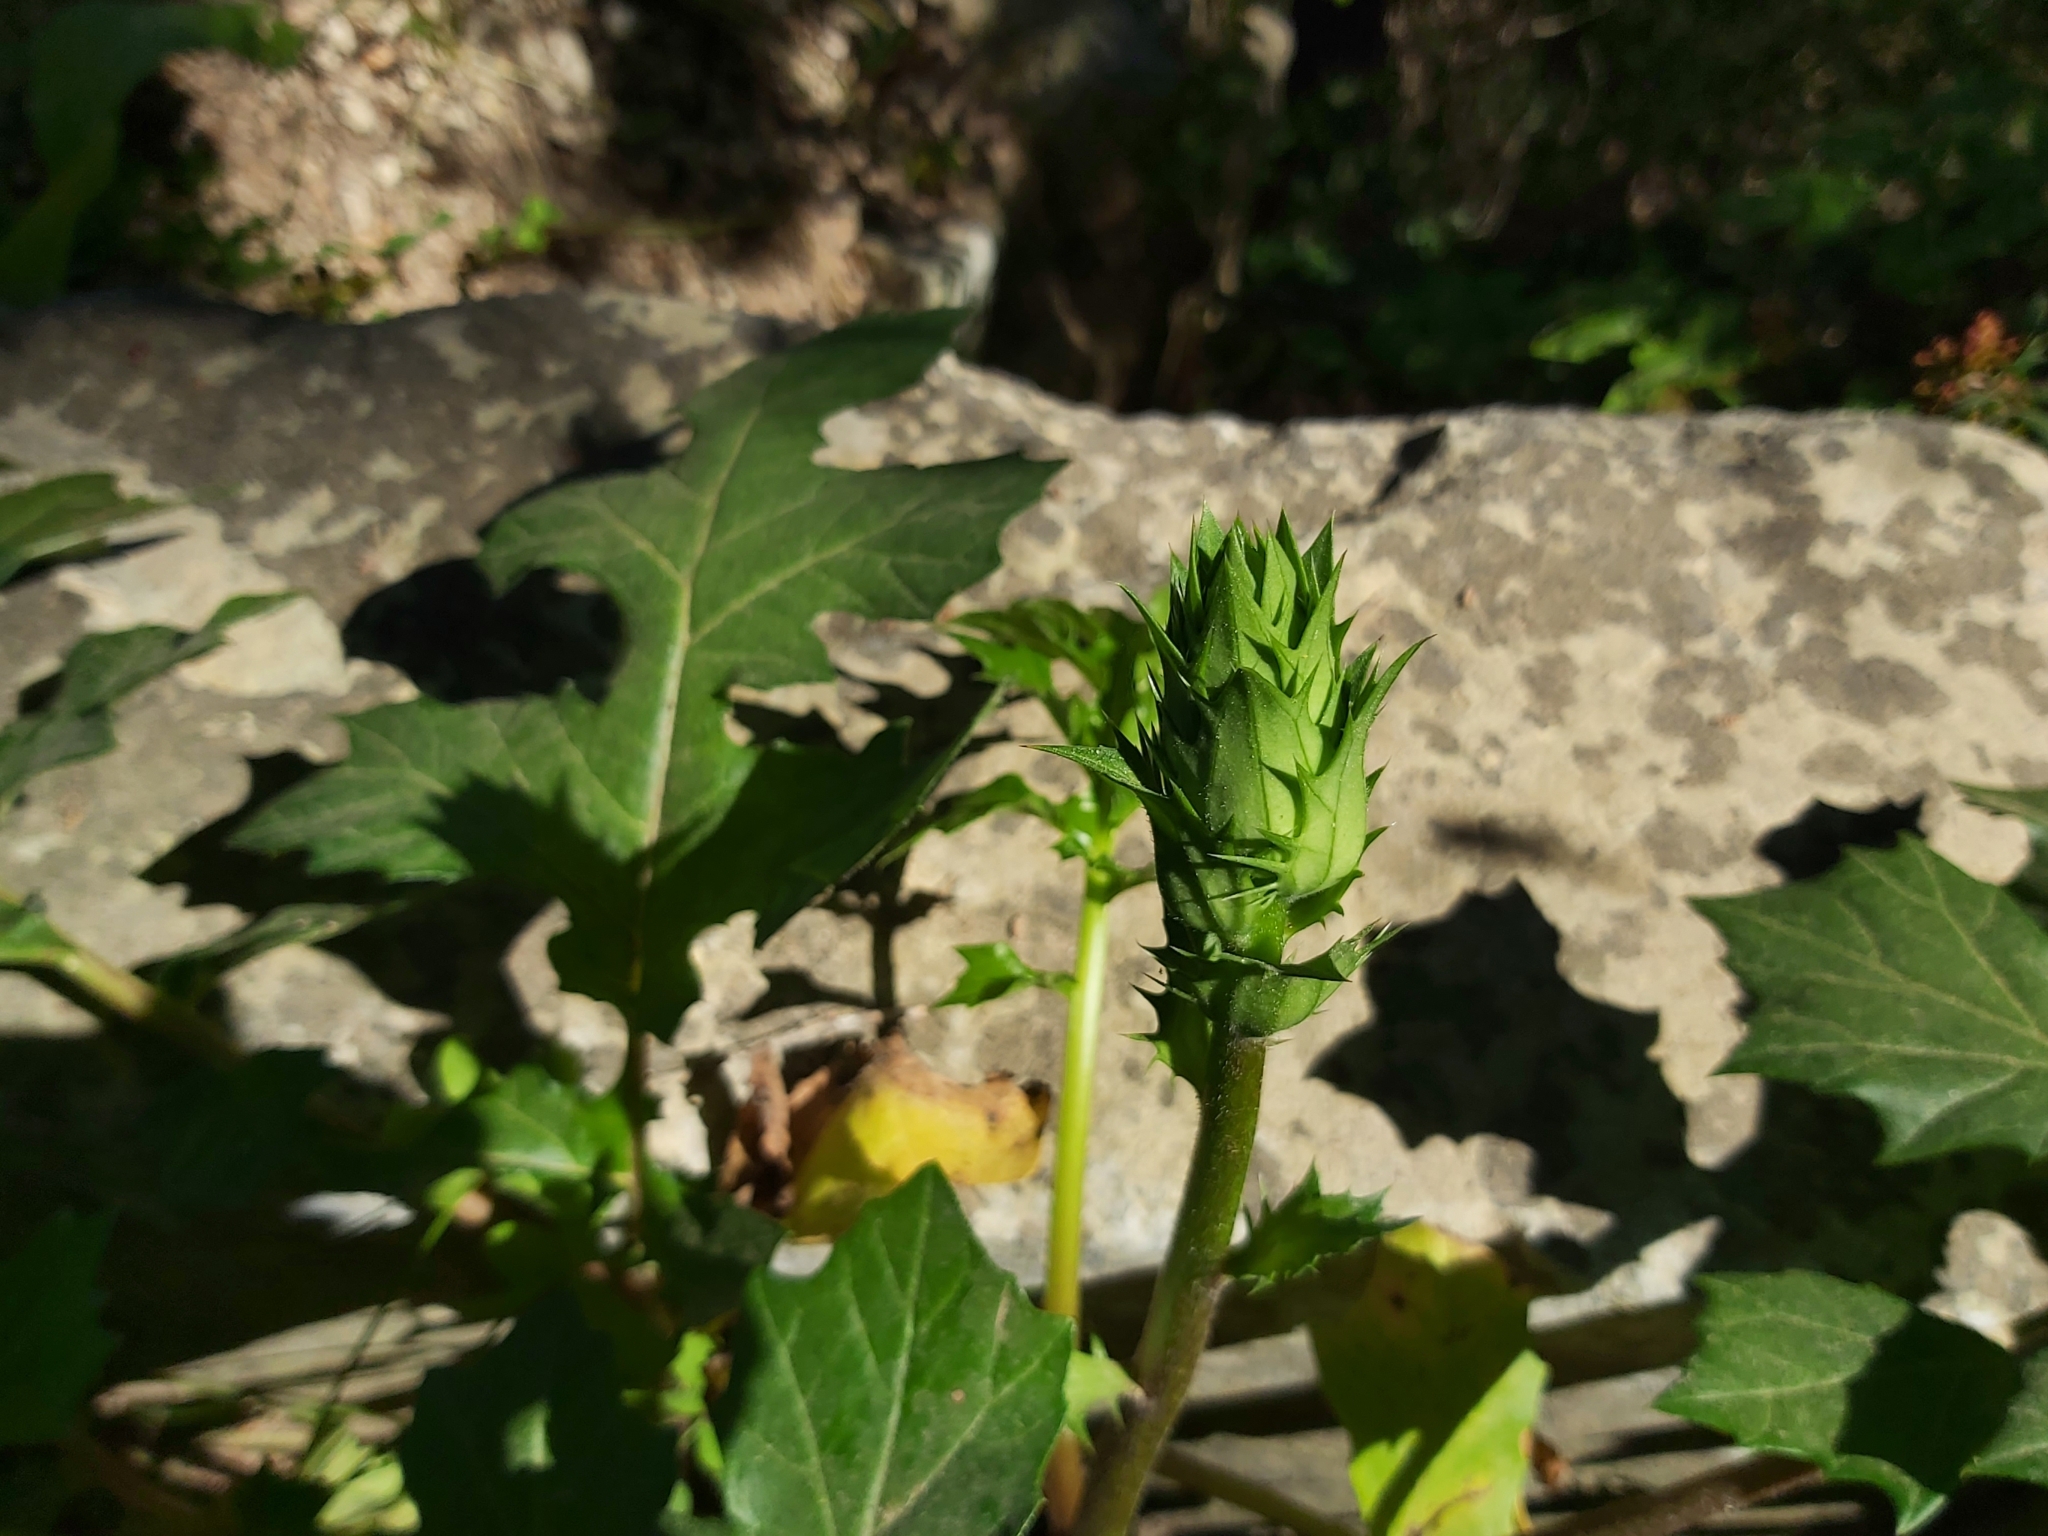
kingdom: Plantae
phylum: Tracheophyta
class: Magnoliopsida
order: Lamiales
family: Acanthaceae
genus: Acanthus
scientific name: Acanthus mollis
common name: Bear's-breech
